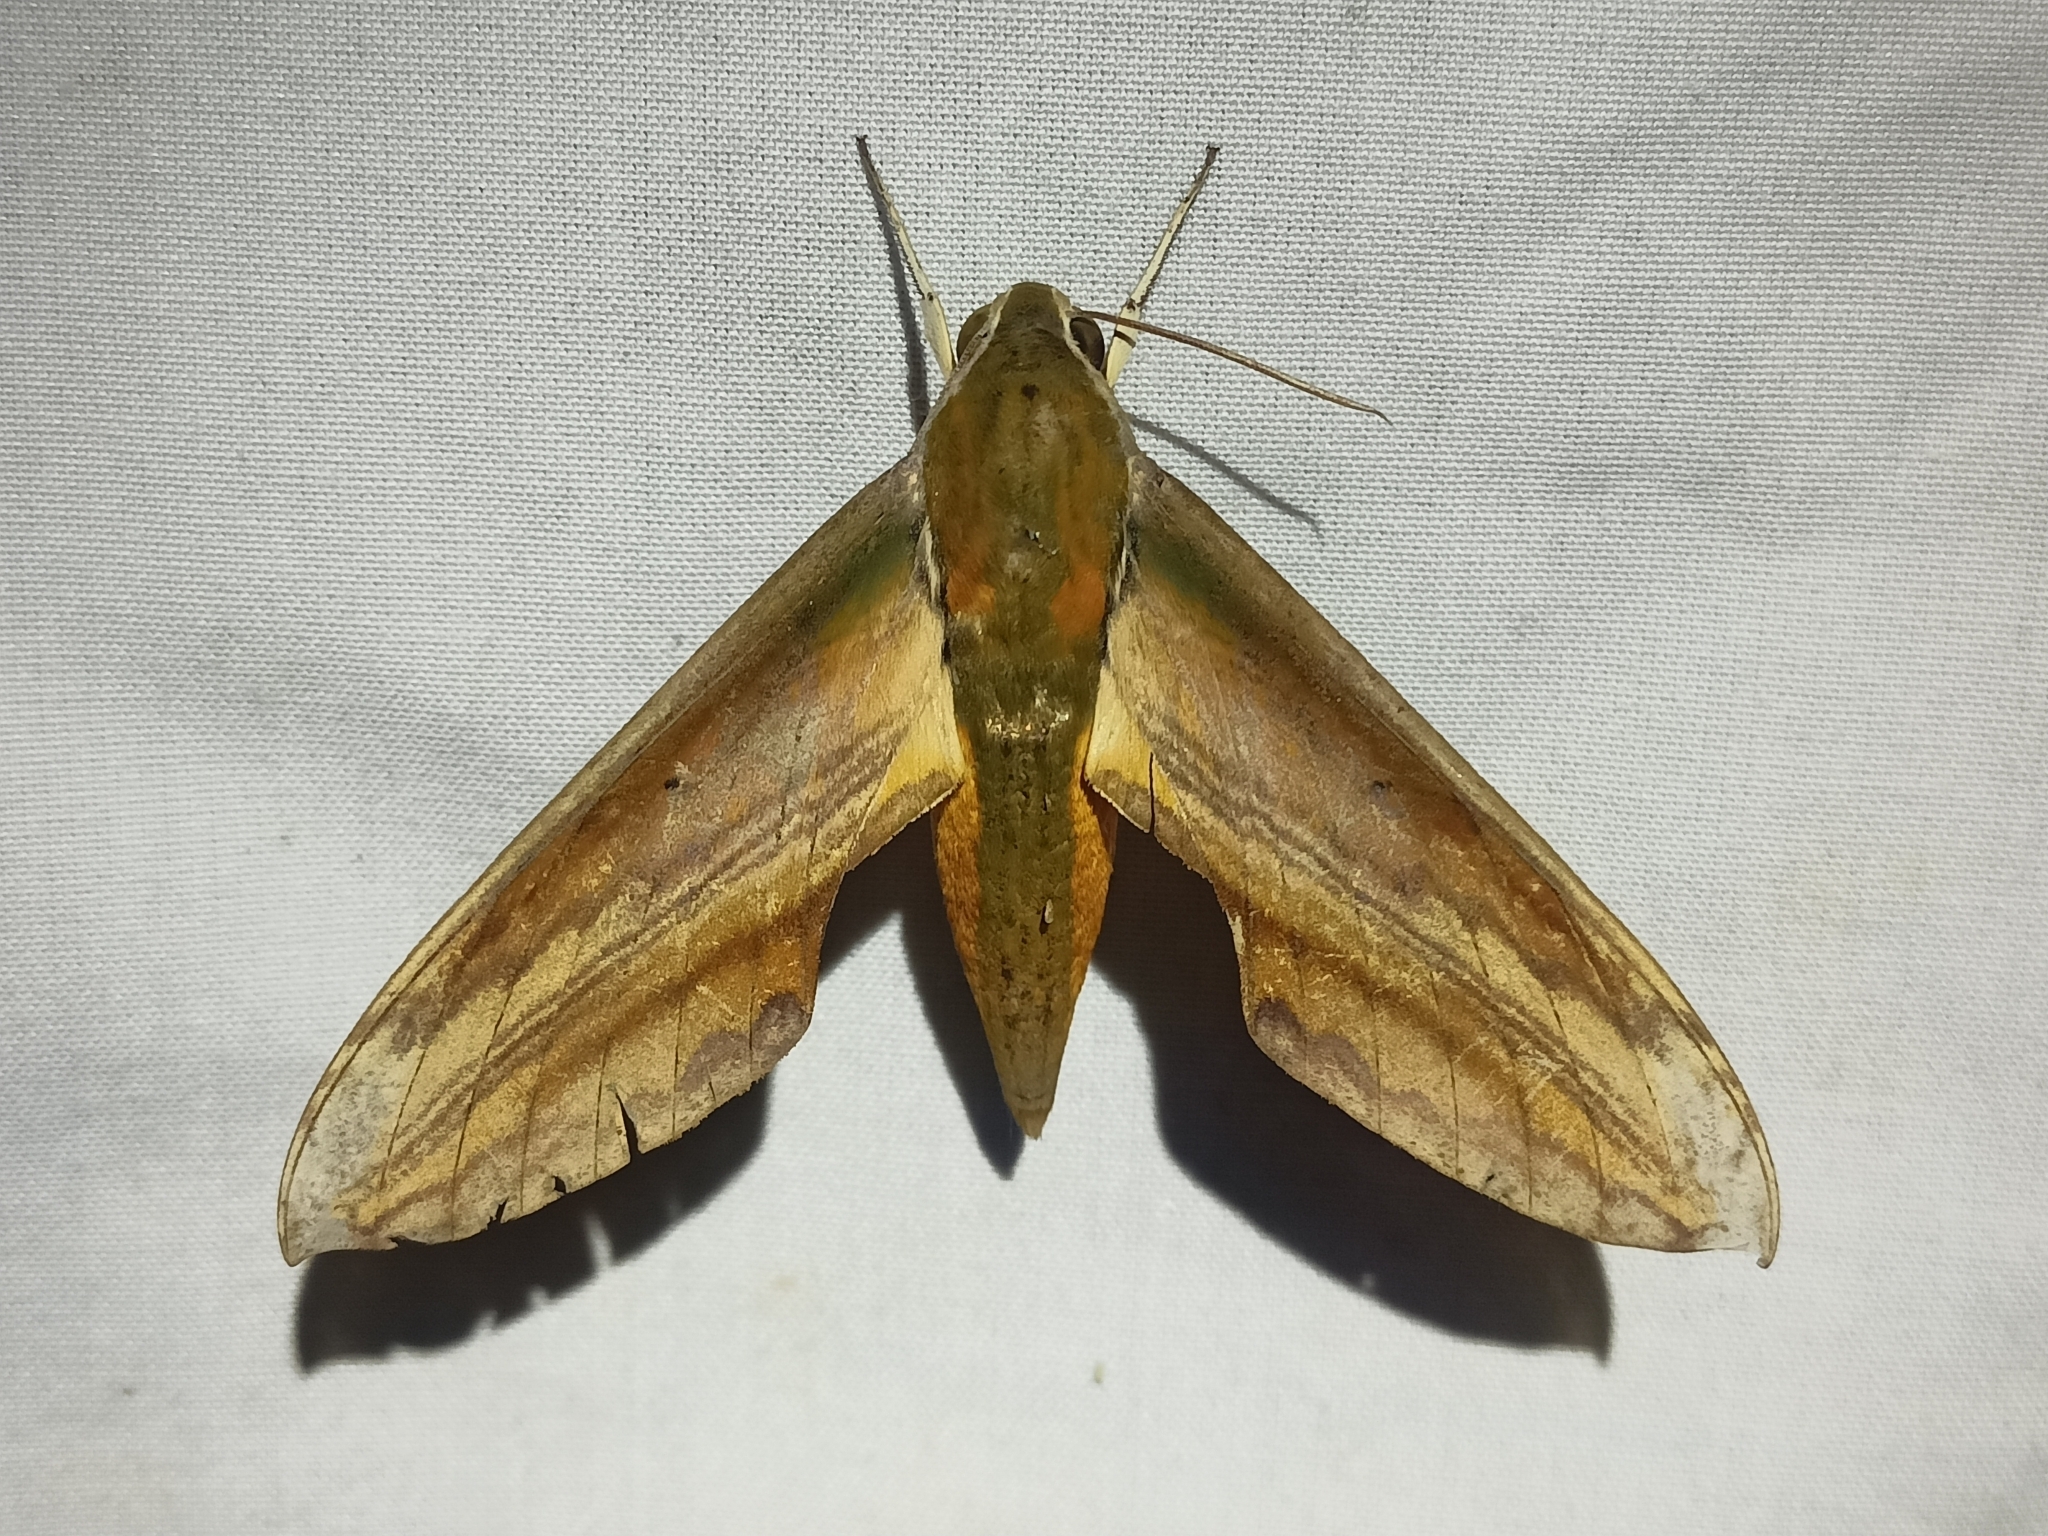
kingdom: Animalia
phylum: Arthropoda
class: Insecta
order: Lepidoptera
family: Sphingidae
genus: Theretra
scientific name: Theretra nessus
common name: Yam hawk moth
